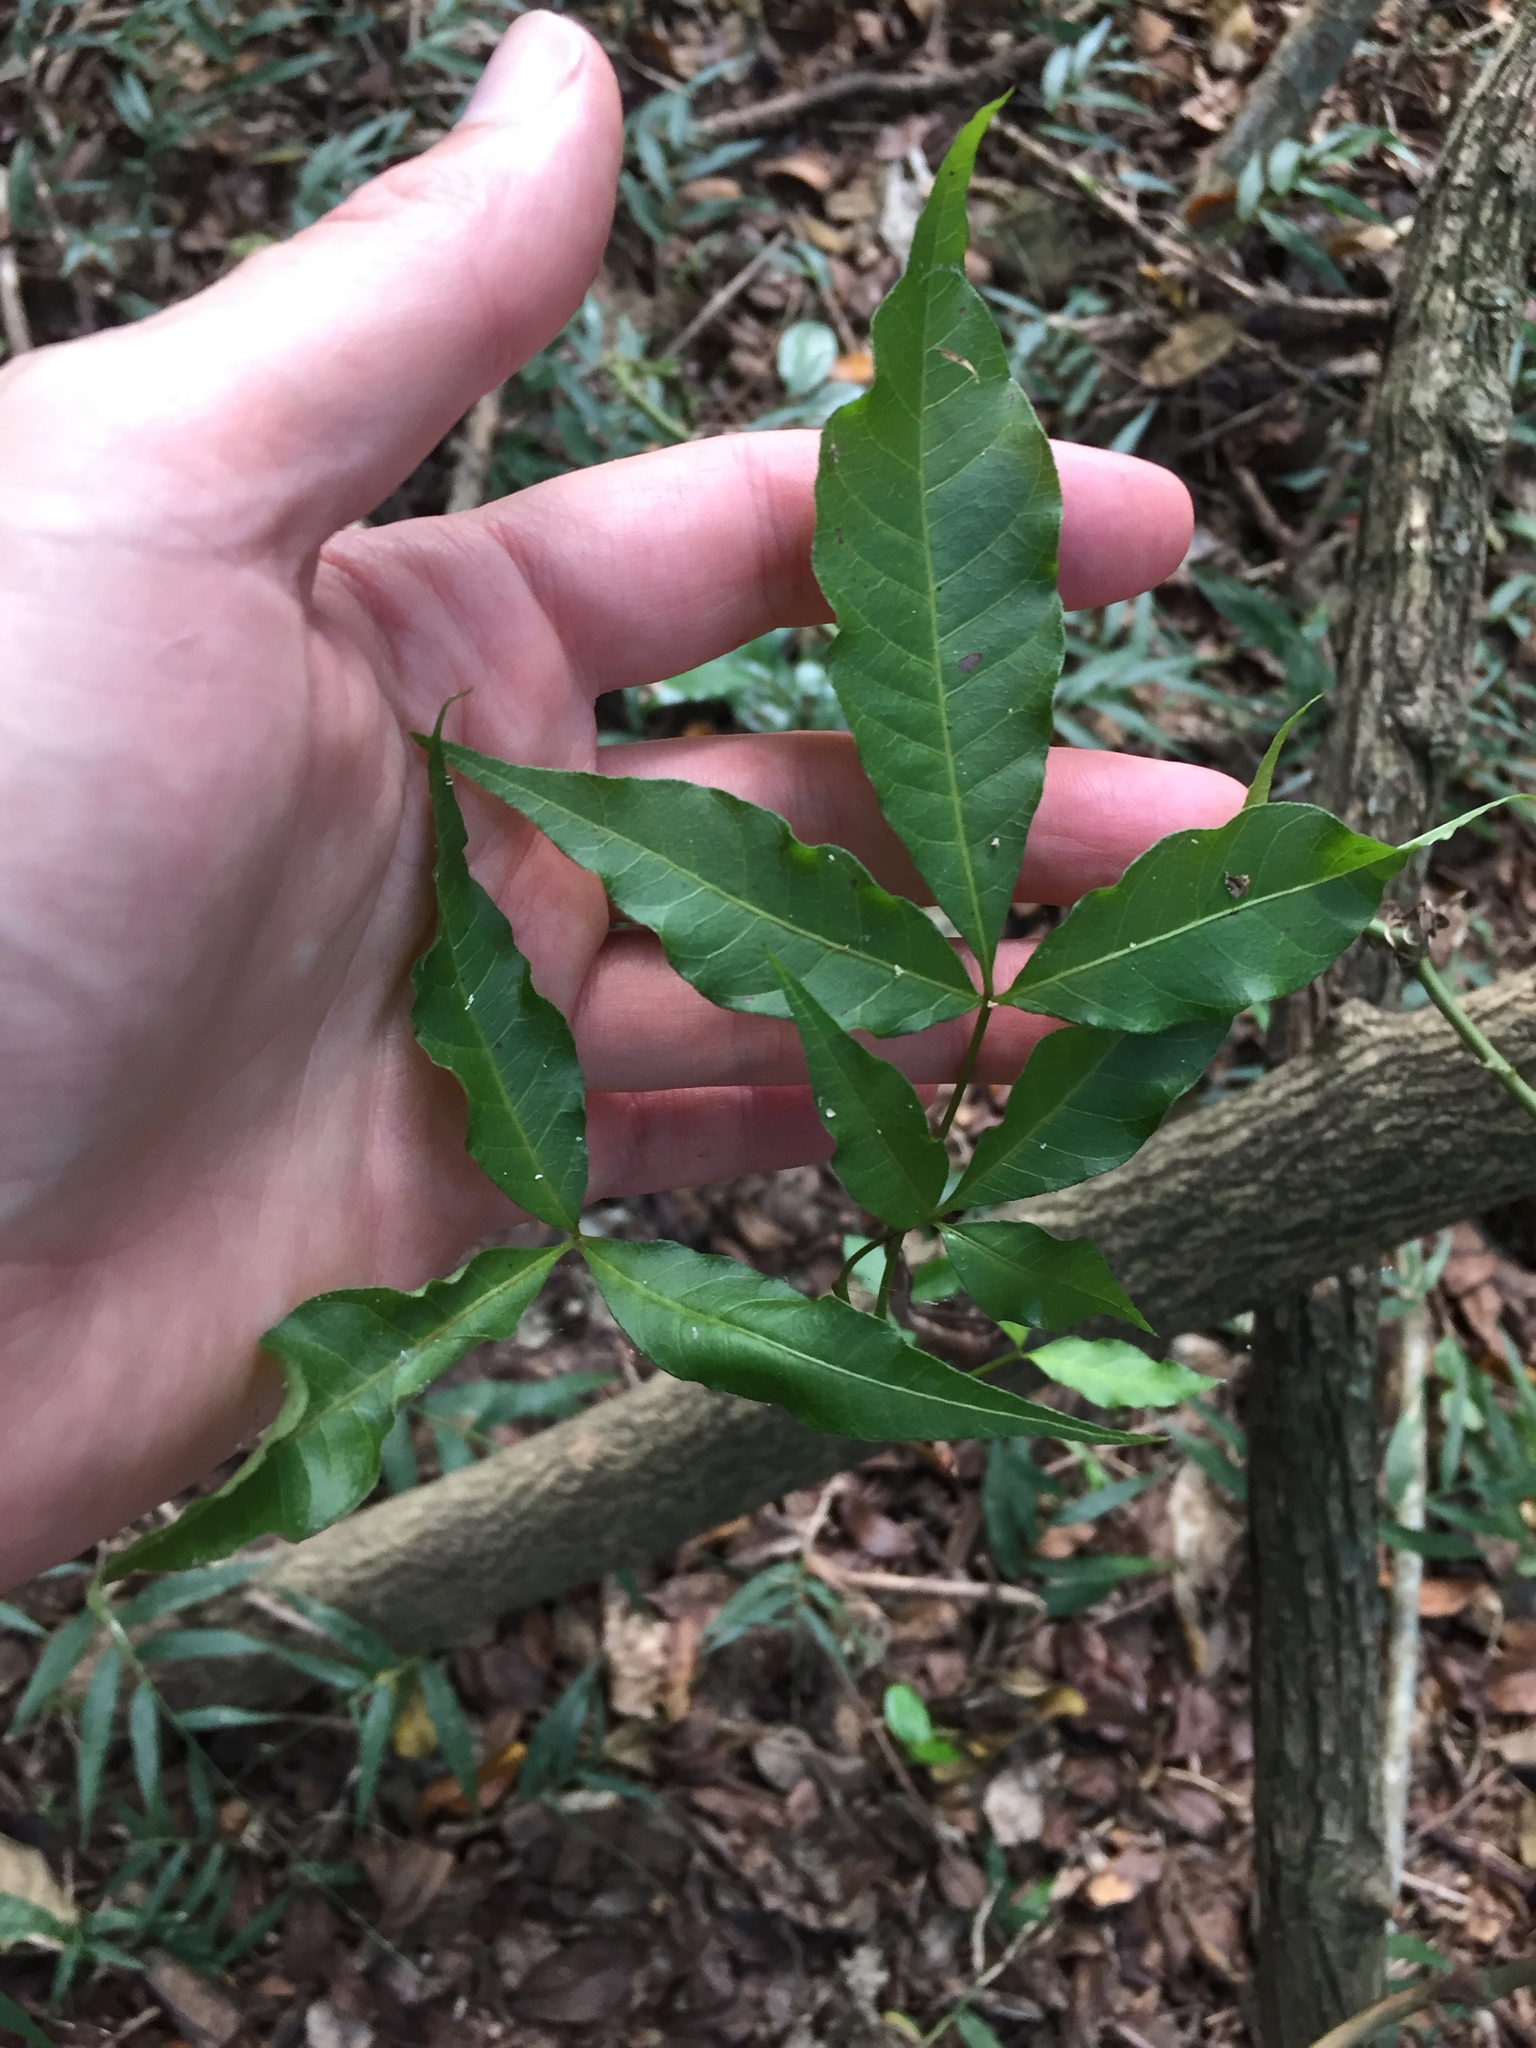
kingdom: Plantae
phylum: Tracheophyta
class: Magnoliopsida
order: Sapindales
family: Anacardiaceae
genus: Searsia
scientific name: Searsia chirindensis
